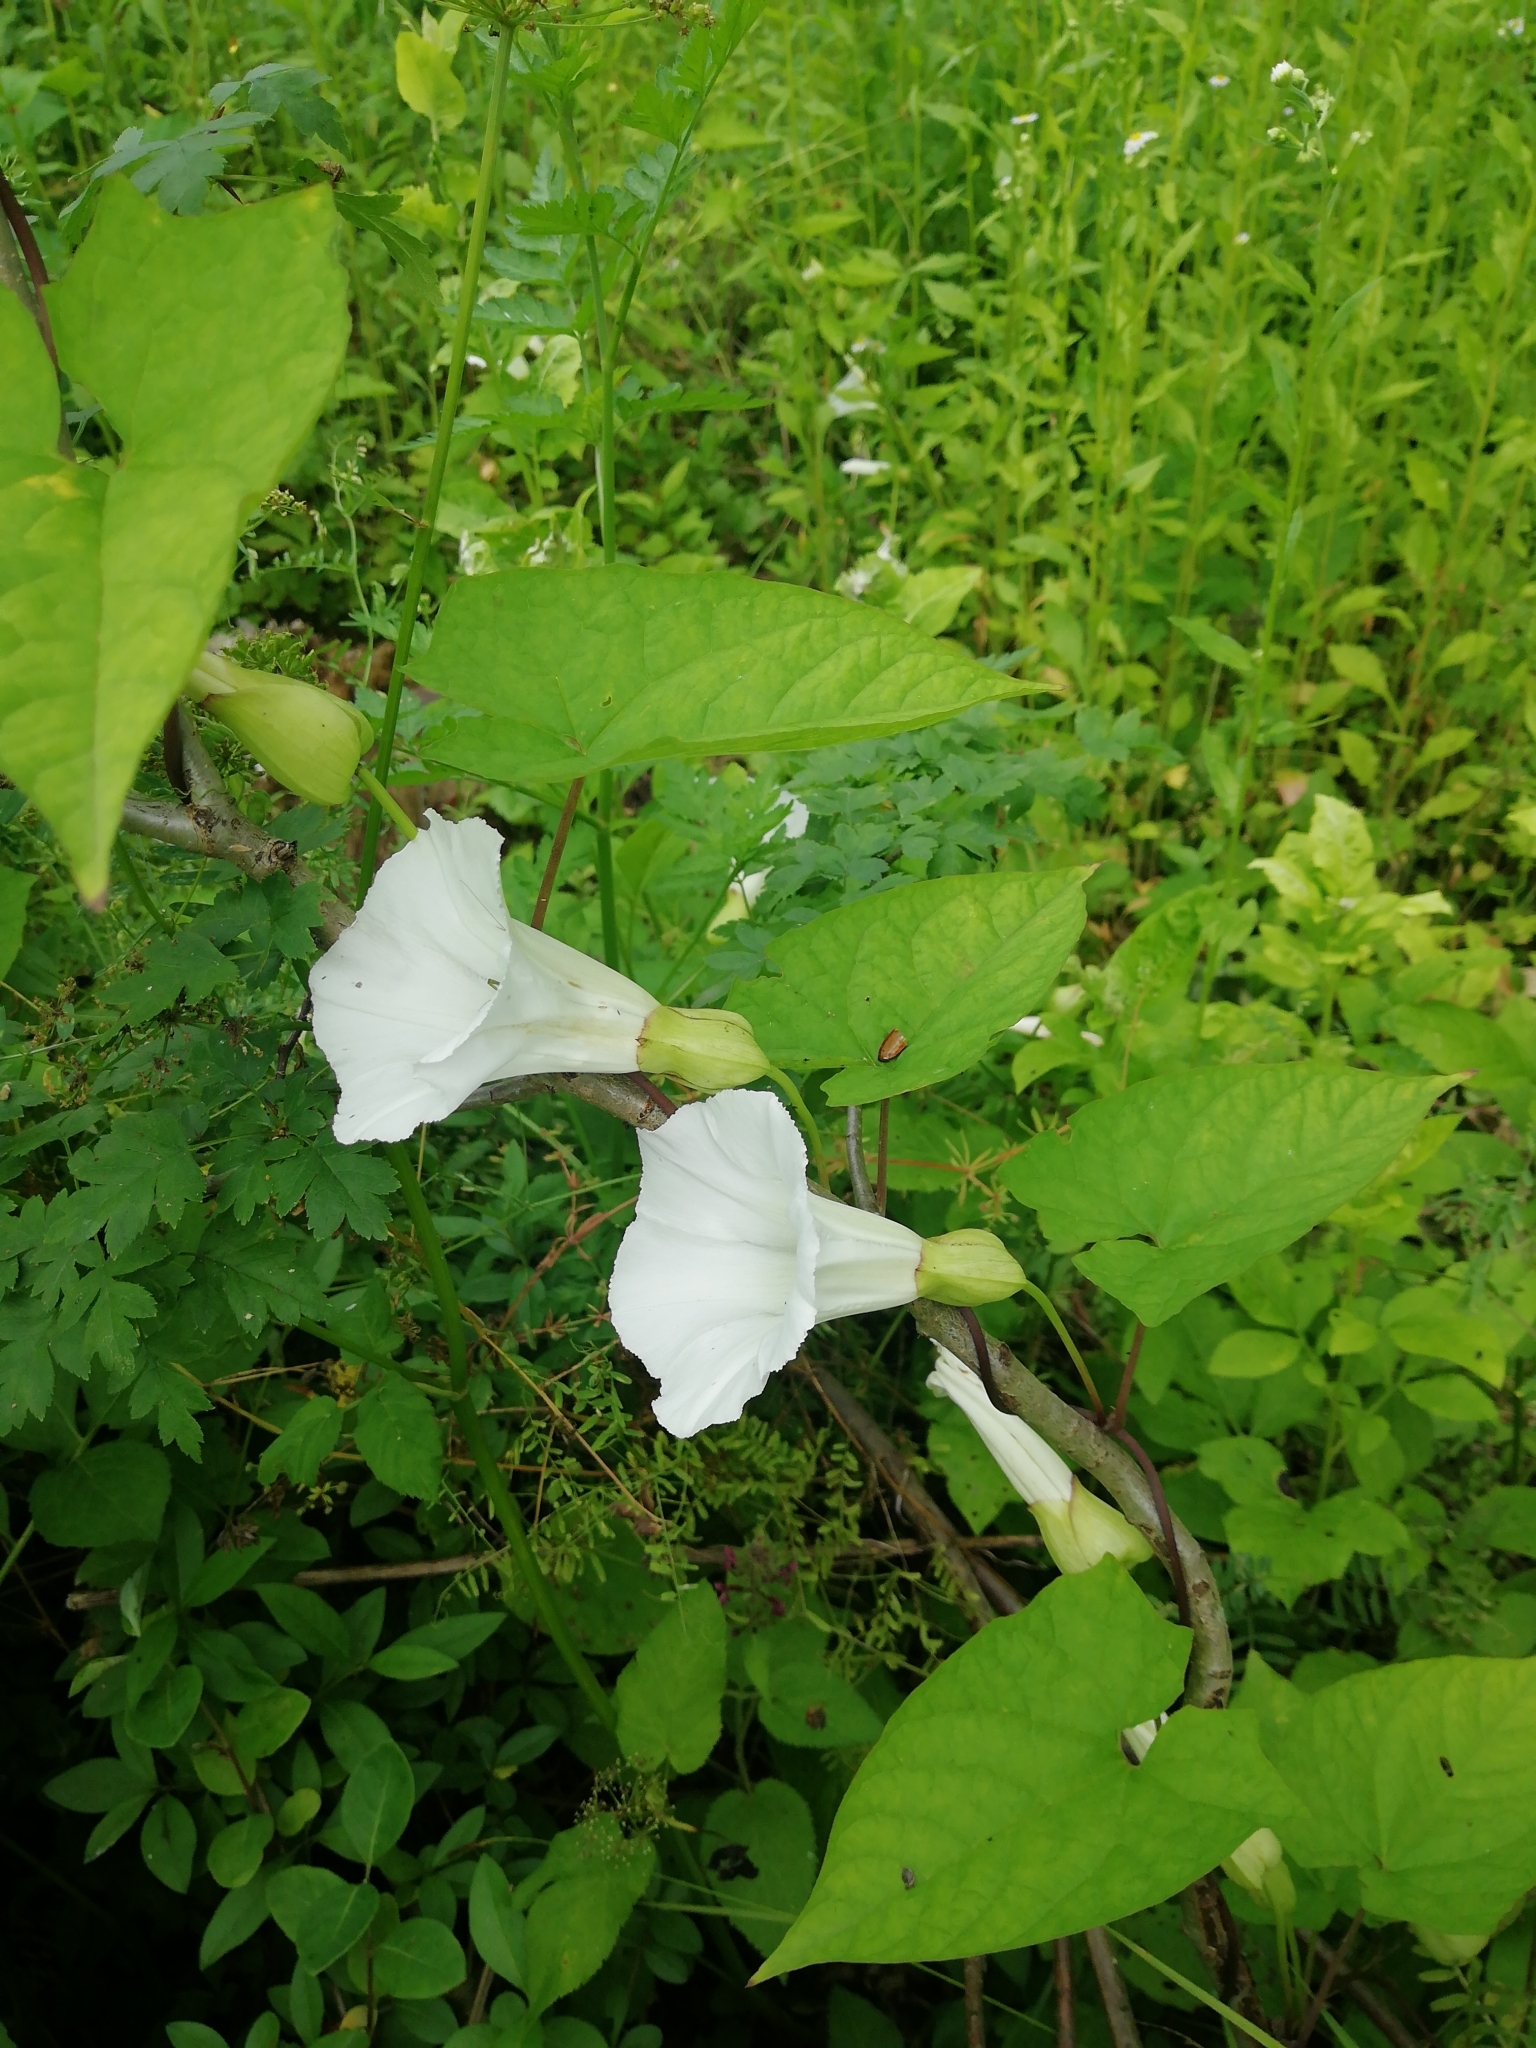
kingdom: Plantae
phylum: Tracheophyta
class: Magnoliopsida
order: Solanales
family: Convolvulaceae
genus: Calystegia
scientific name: Calystegia silvatica
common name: Large bindweed
